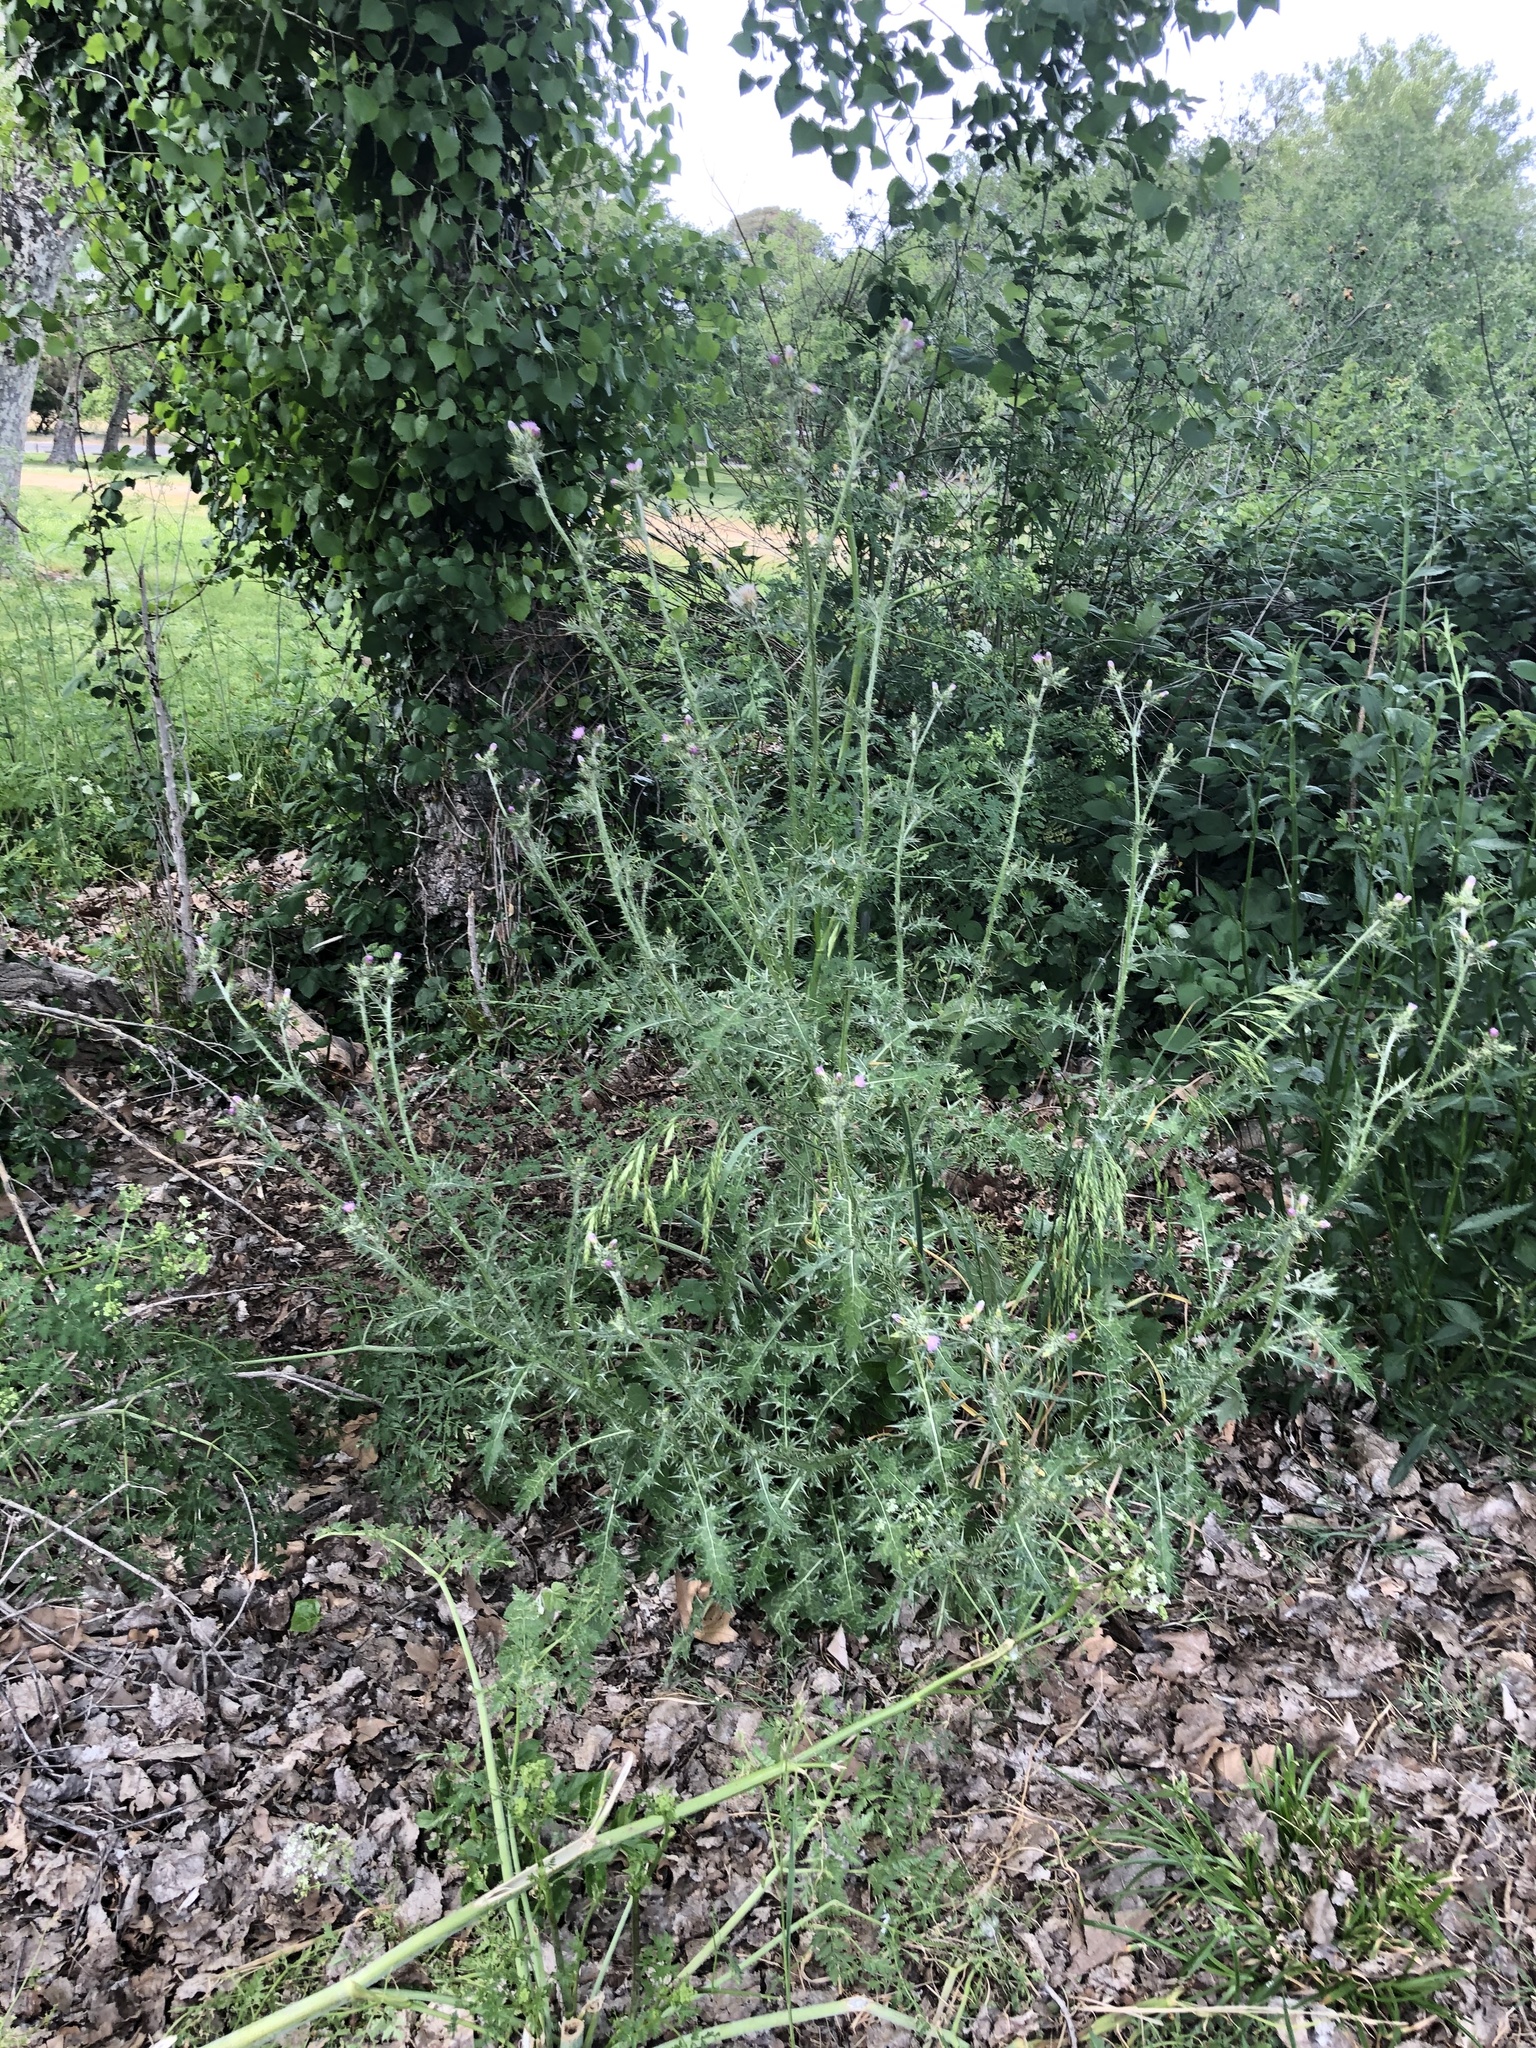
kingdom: Plantae
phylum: Tracheophyta
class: Magnoliopsida
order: Apiales
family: Apiaceae
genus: Conium
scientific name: Conium maculatum
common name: Hemlock
